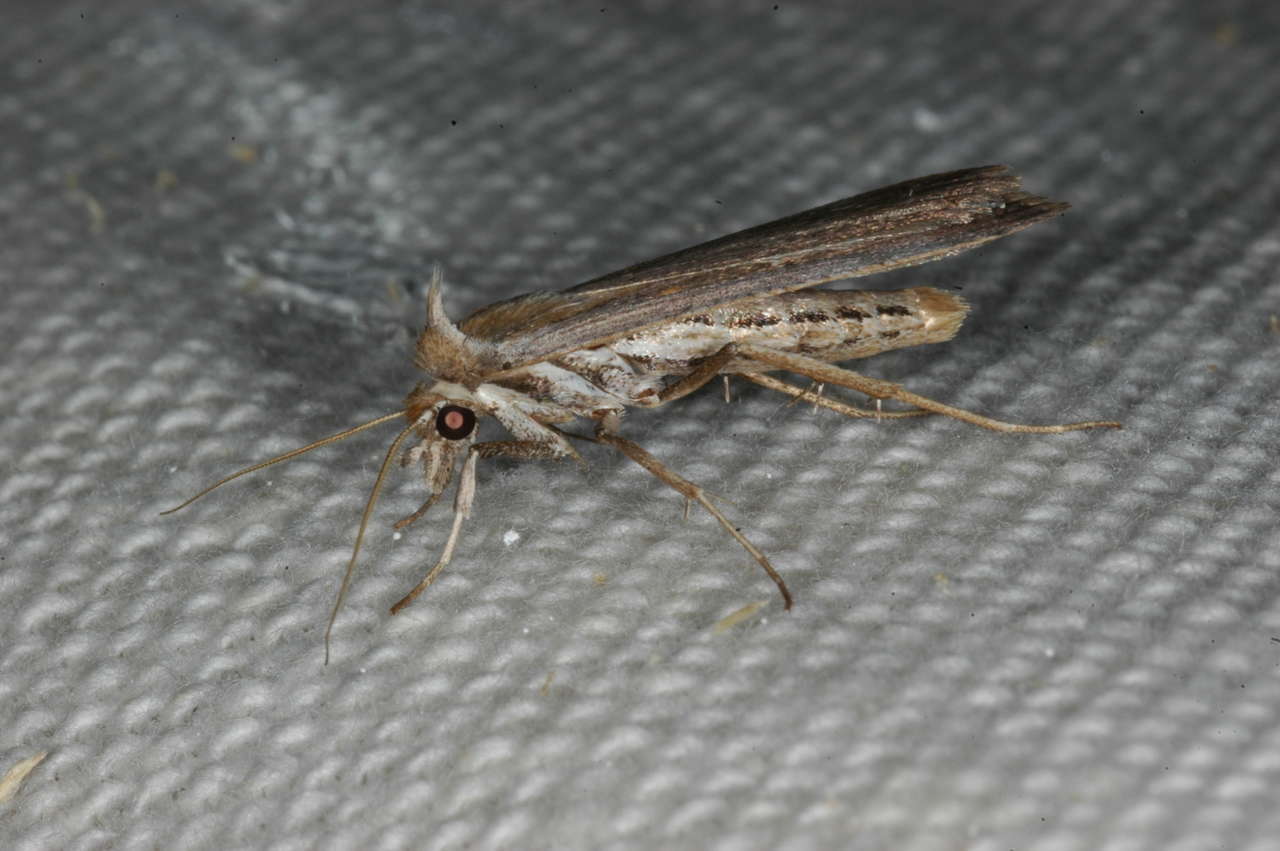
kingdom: Animalia
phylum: Arthropoda
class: Insecta
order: Lepidoptera
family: Noctuidae
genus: Tathorhynchus
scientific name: Tathorhynchus fallax
